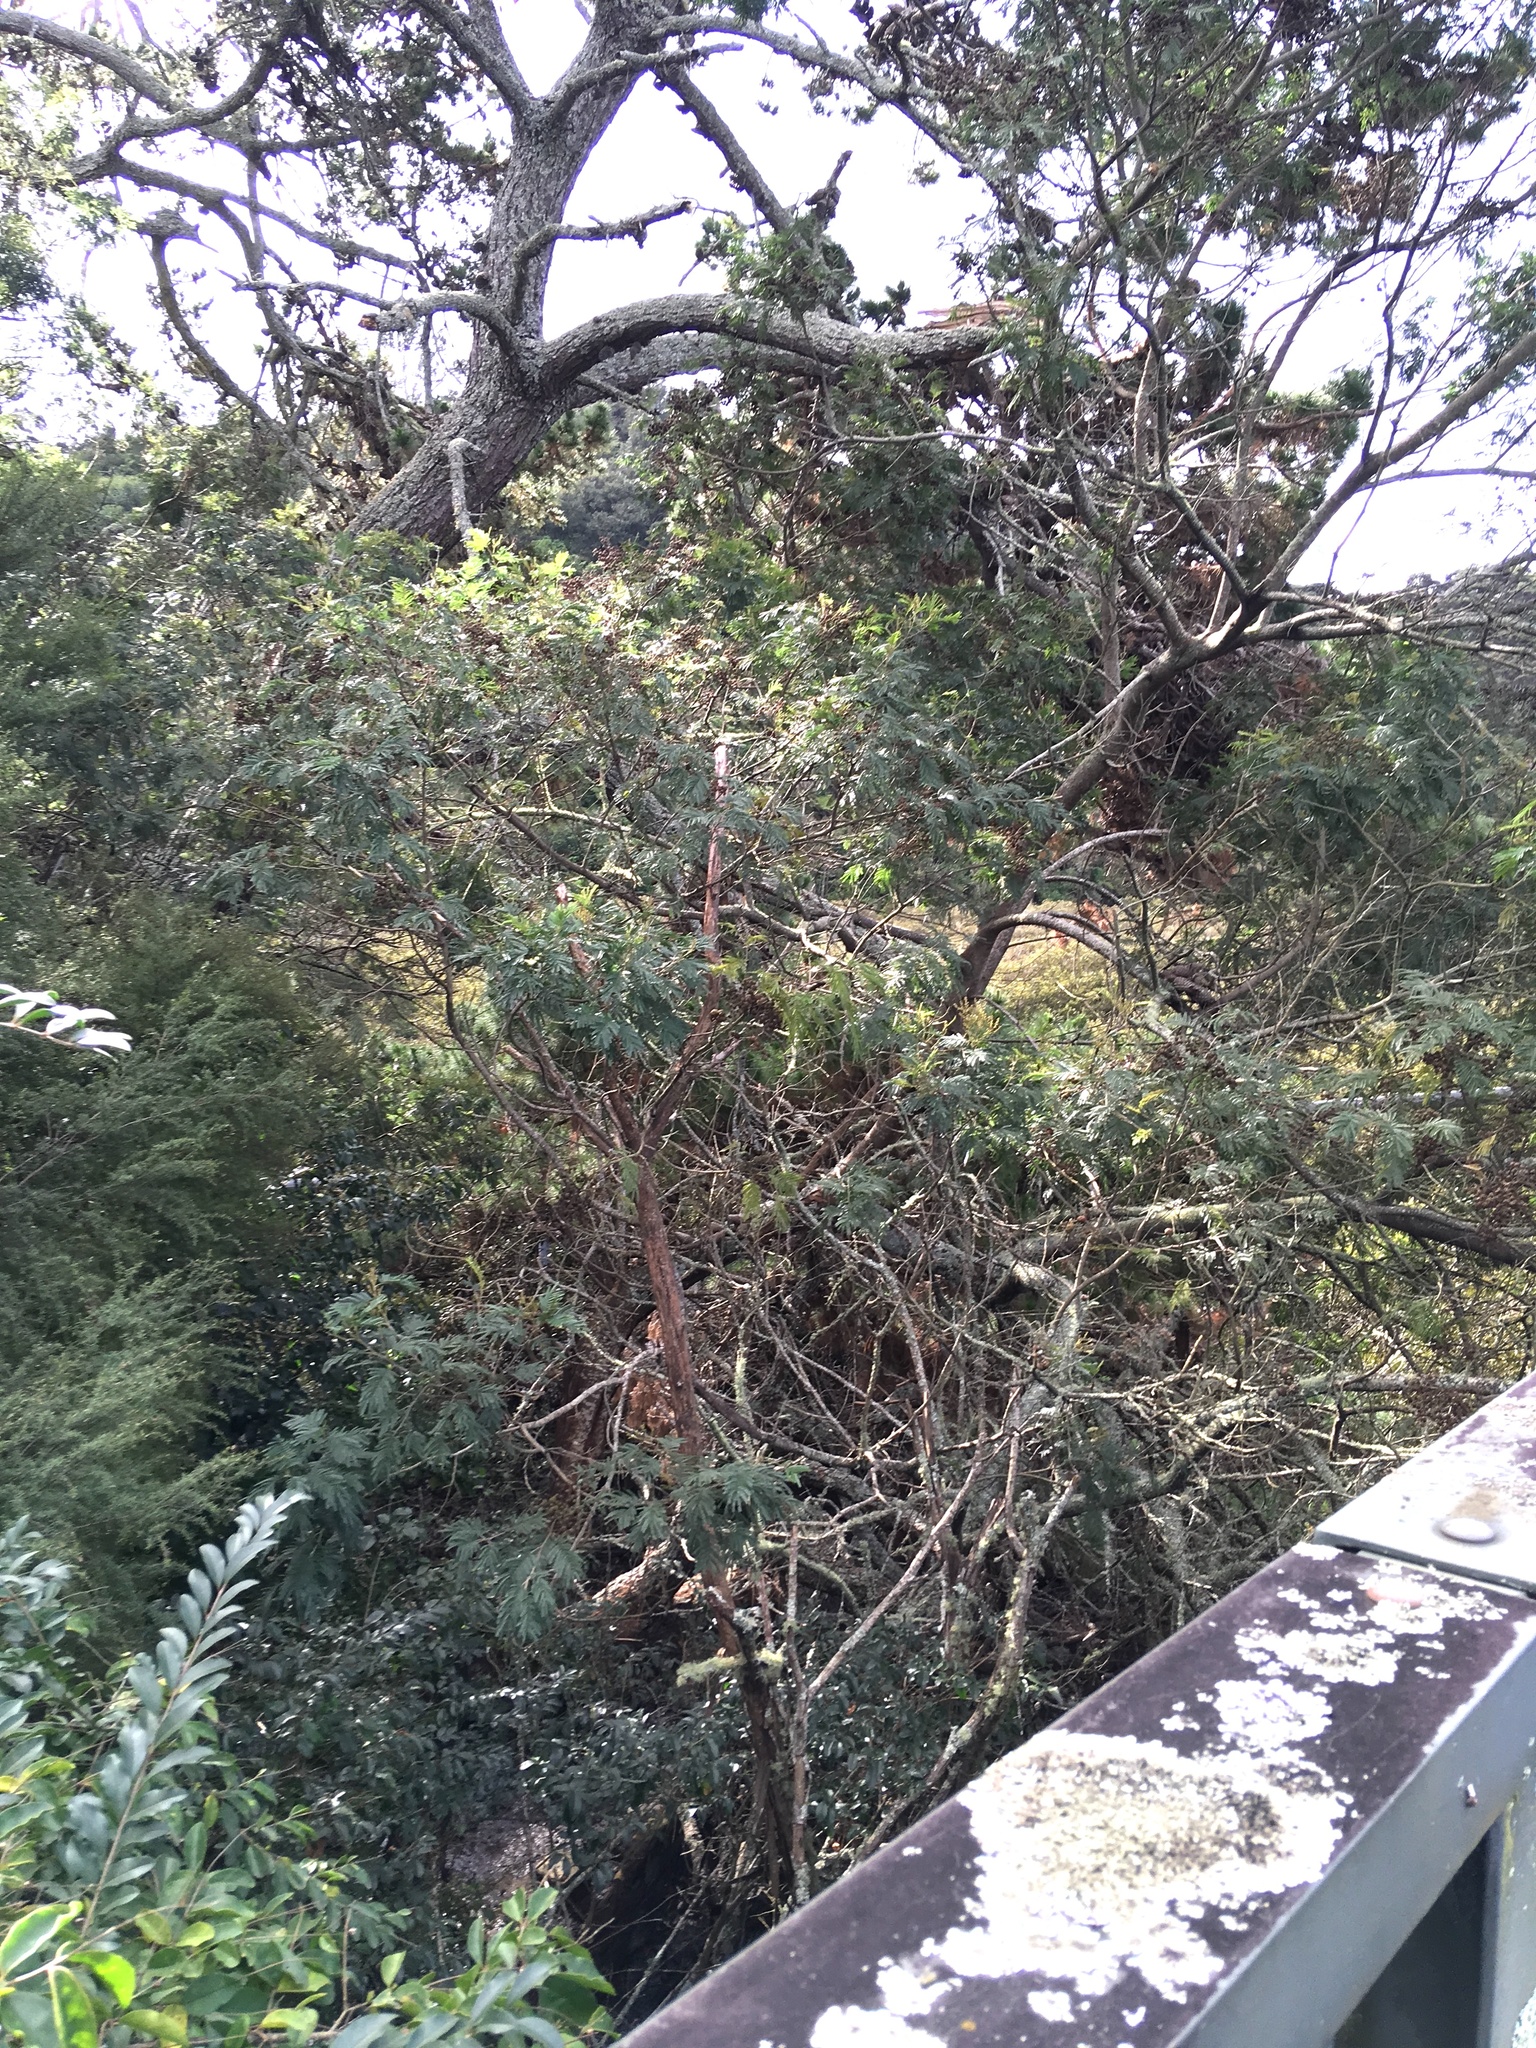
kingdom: Plantae
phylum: Tracheophyta
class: Magnoliopsida
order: Lamiales
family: Oleaceae
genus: Ligustrum
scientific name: Ligustrum lucidum
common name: Glossy privet
